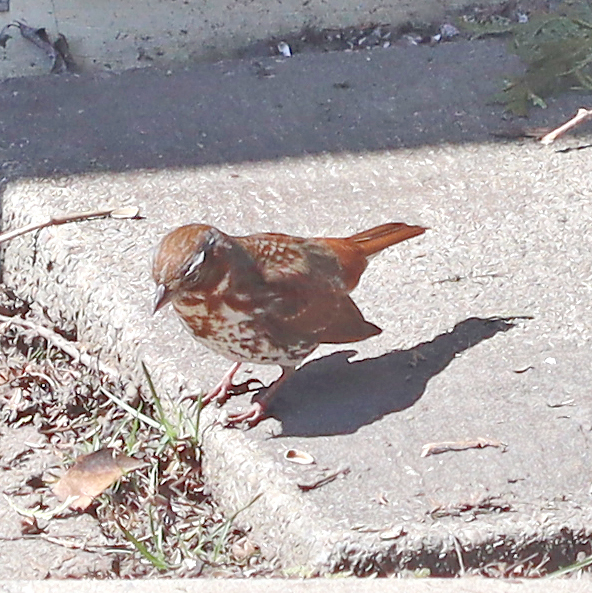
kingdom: Animalia
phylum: Chordata
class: Aves
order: Passeriformes
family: Passerellidae
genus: Passerella
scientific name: Passerella iliaca
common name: Fox sparrow
